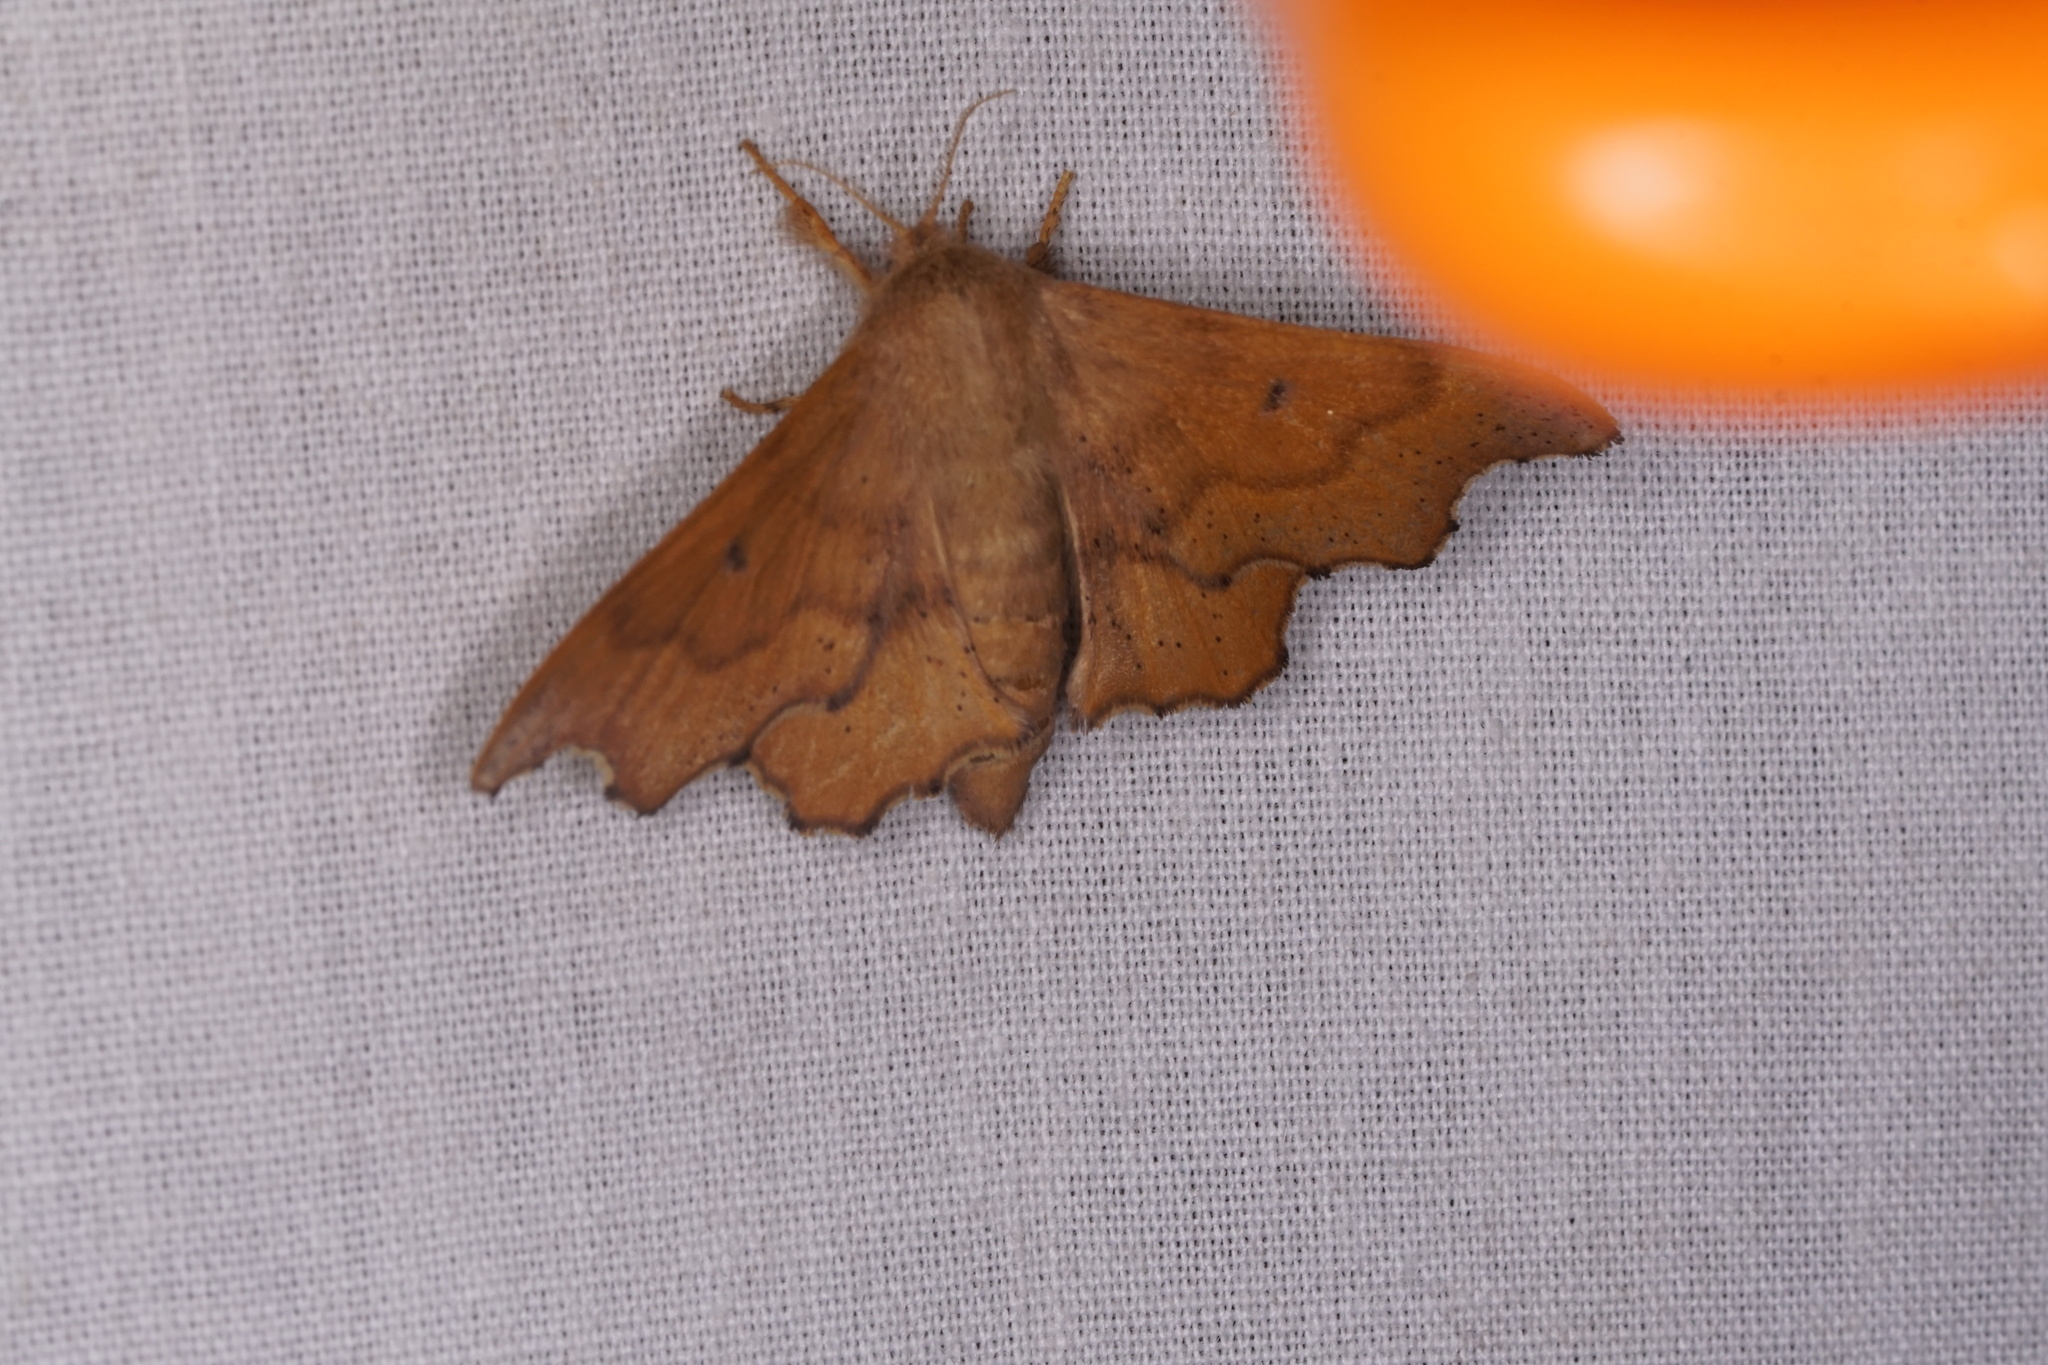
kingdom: Animalia
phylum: Arthropoda
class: Insecta
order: Lepidoptera
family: Mimallonidae
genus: Lacosoma
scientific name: Lacosoma chiridota
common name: Scalloped sack-bearer moth
